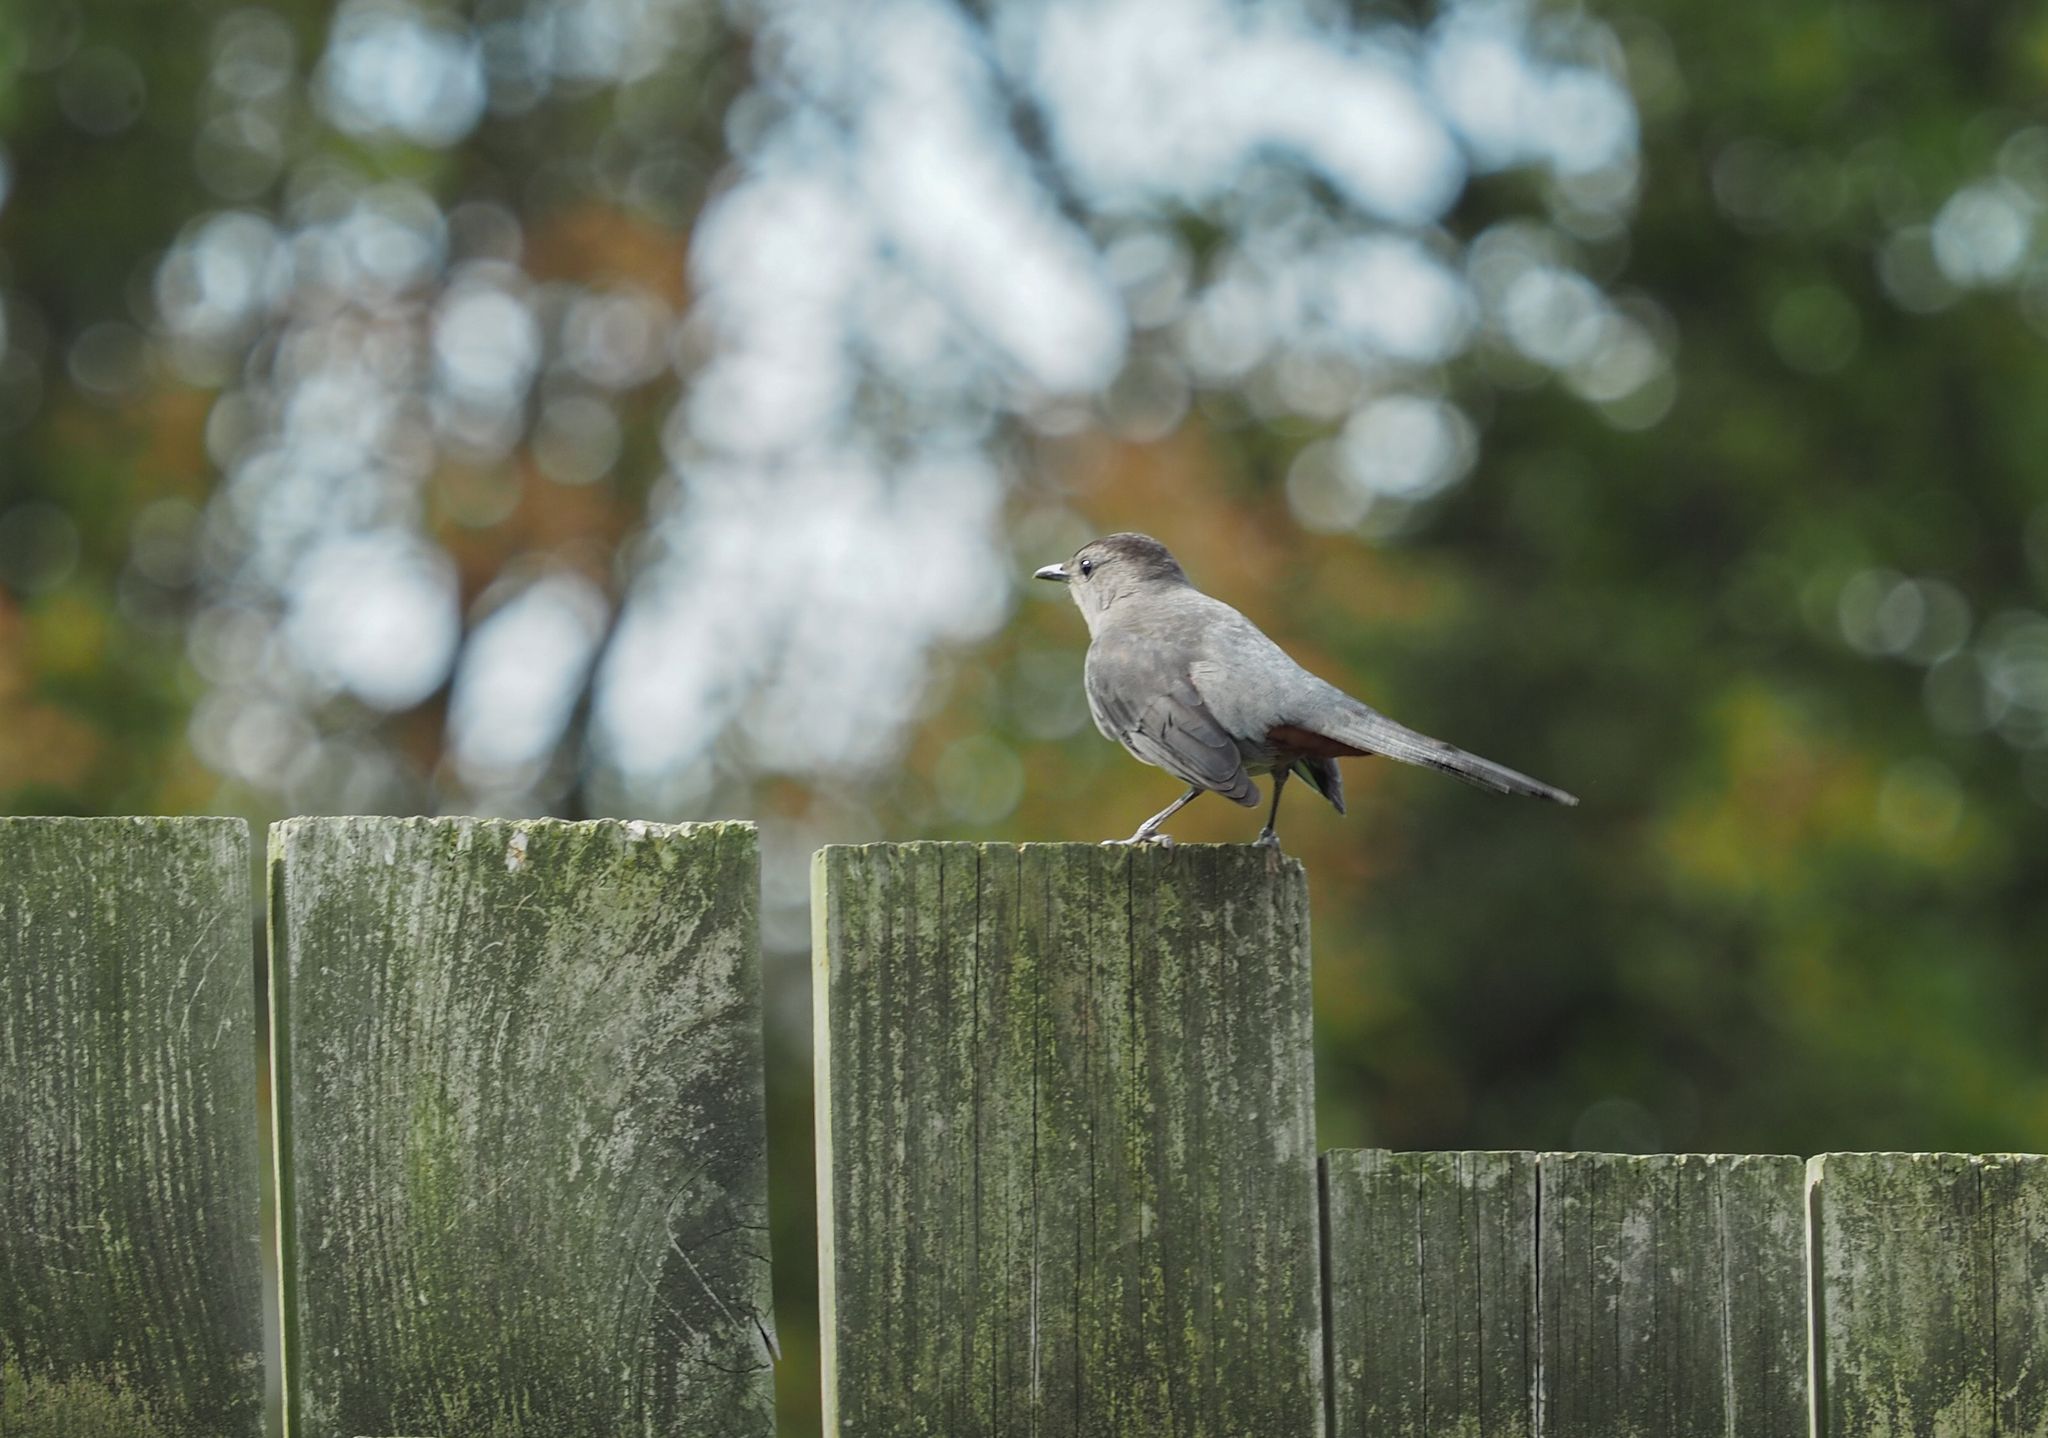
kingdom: Animalia
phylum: Chordata
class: Aves
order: Passeriformes
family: Mimidae
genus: Dumetella
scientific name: Dumetella carolinensis
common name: Gray catbird
